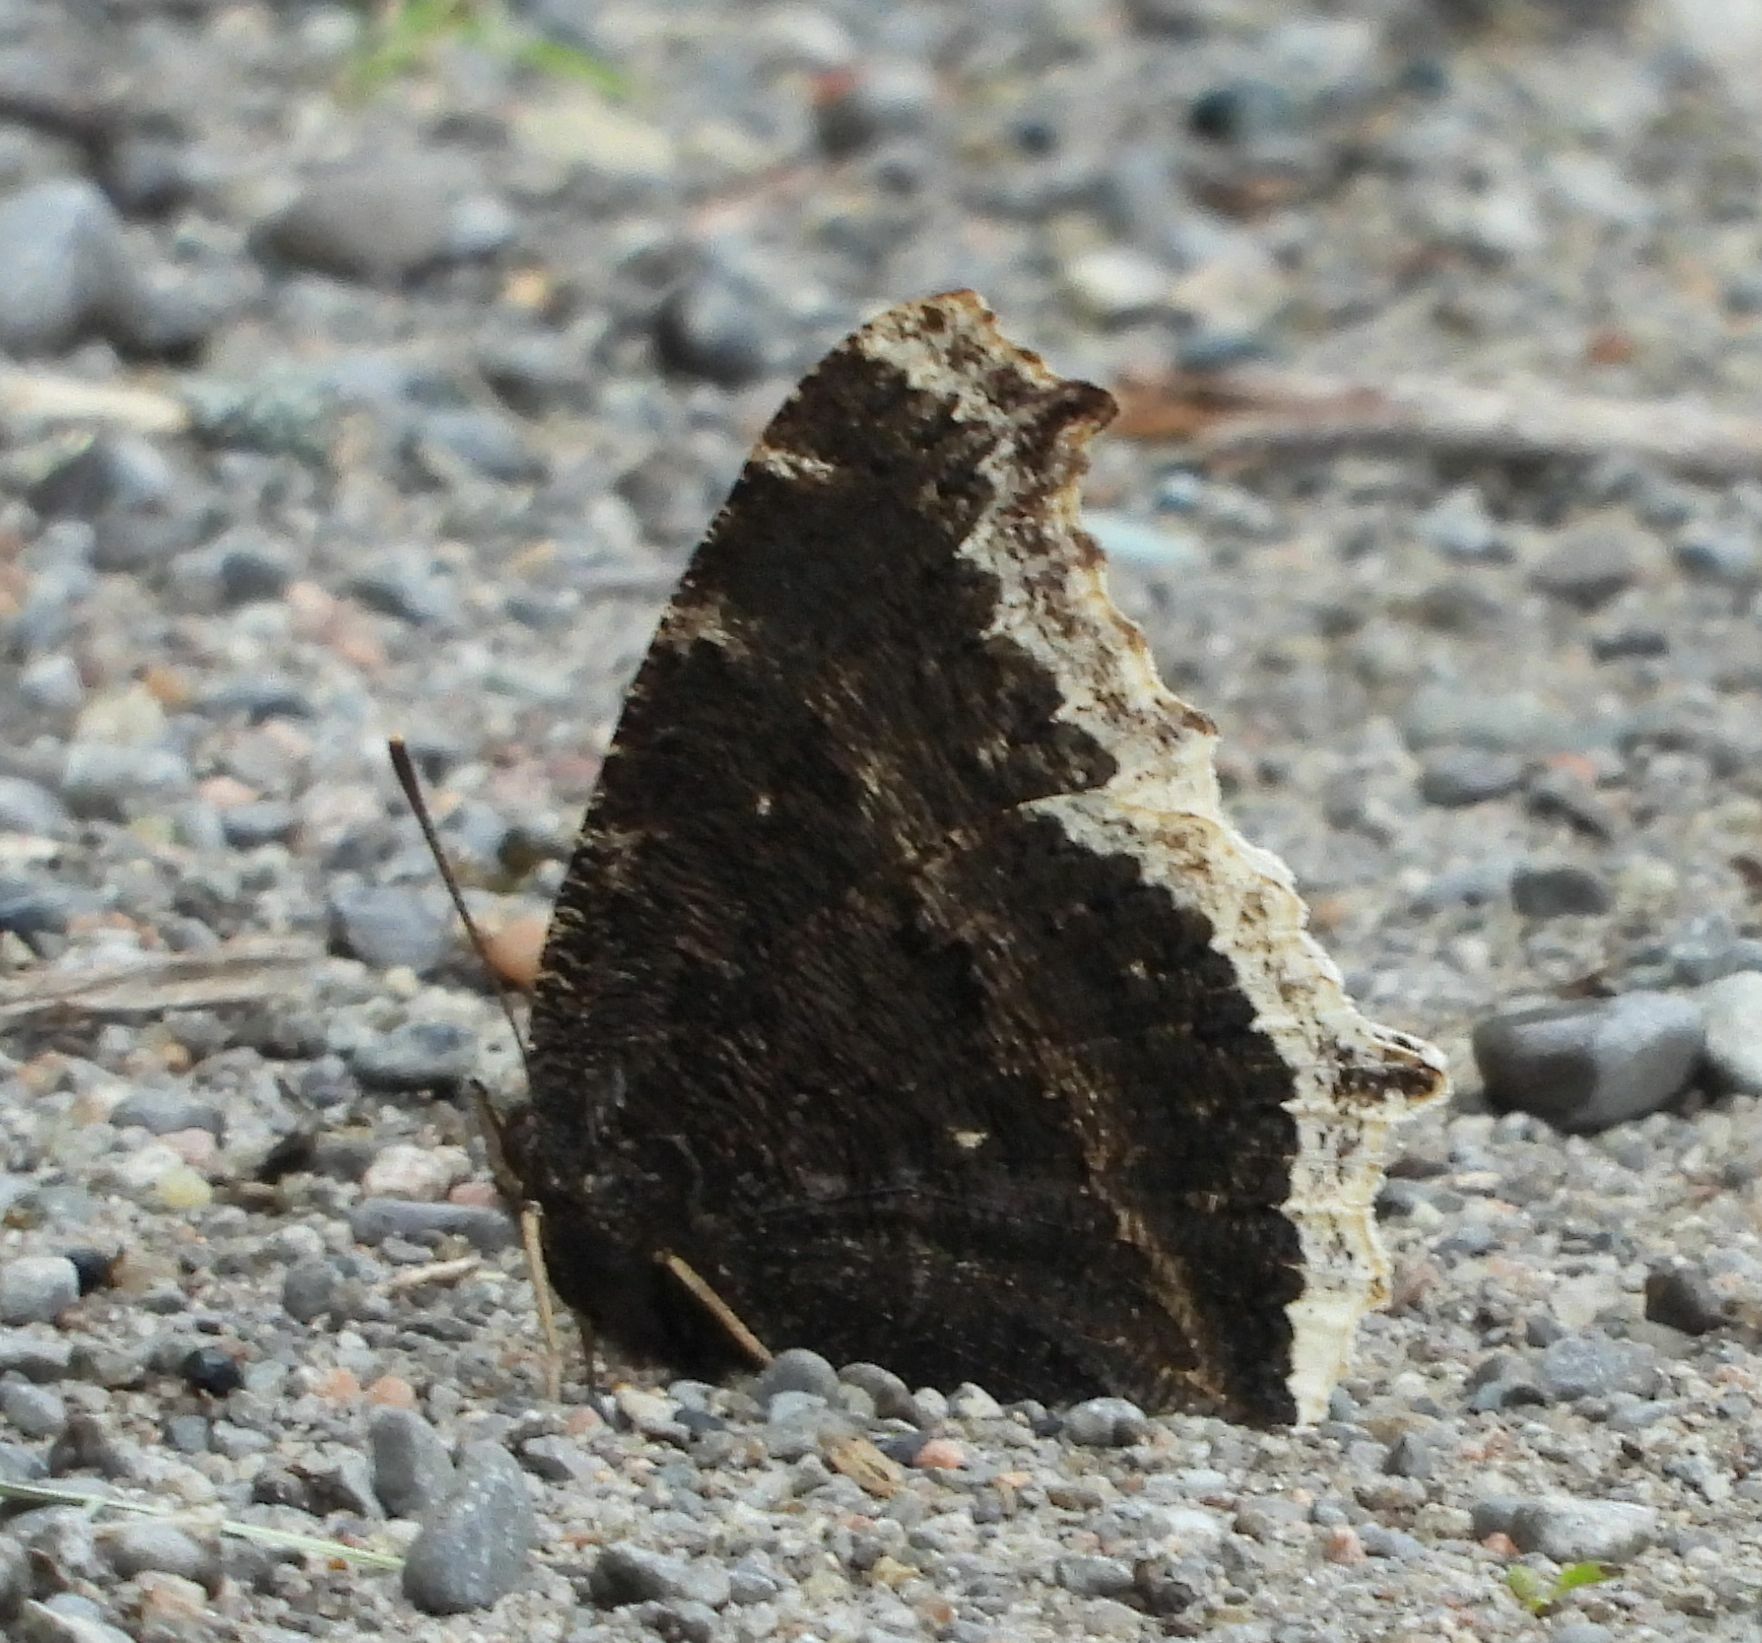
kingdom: Animalia
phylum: Arthropoda
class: Insecta
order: Lepidoptera
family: Nymphalidae
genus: Nymphalis
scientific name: Nymphalis antiopa
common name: Camberwell beauty
